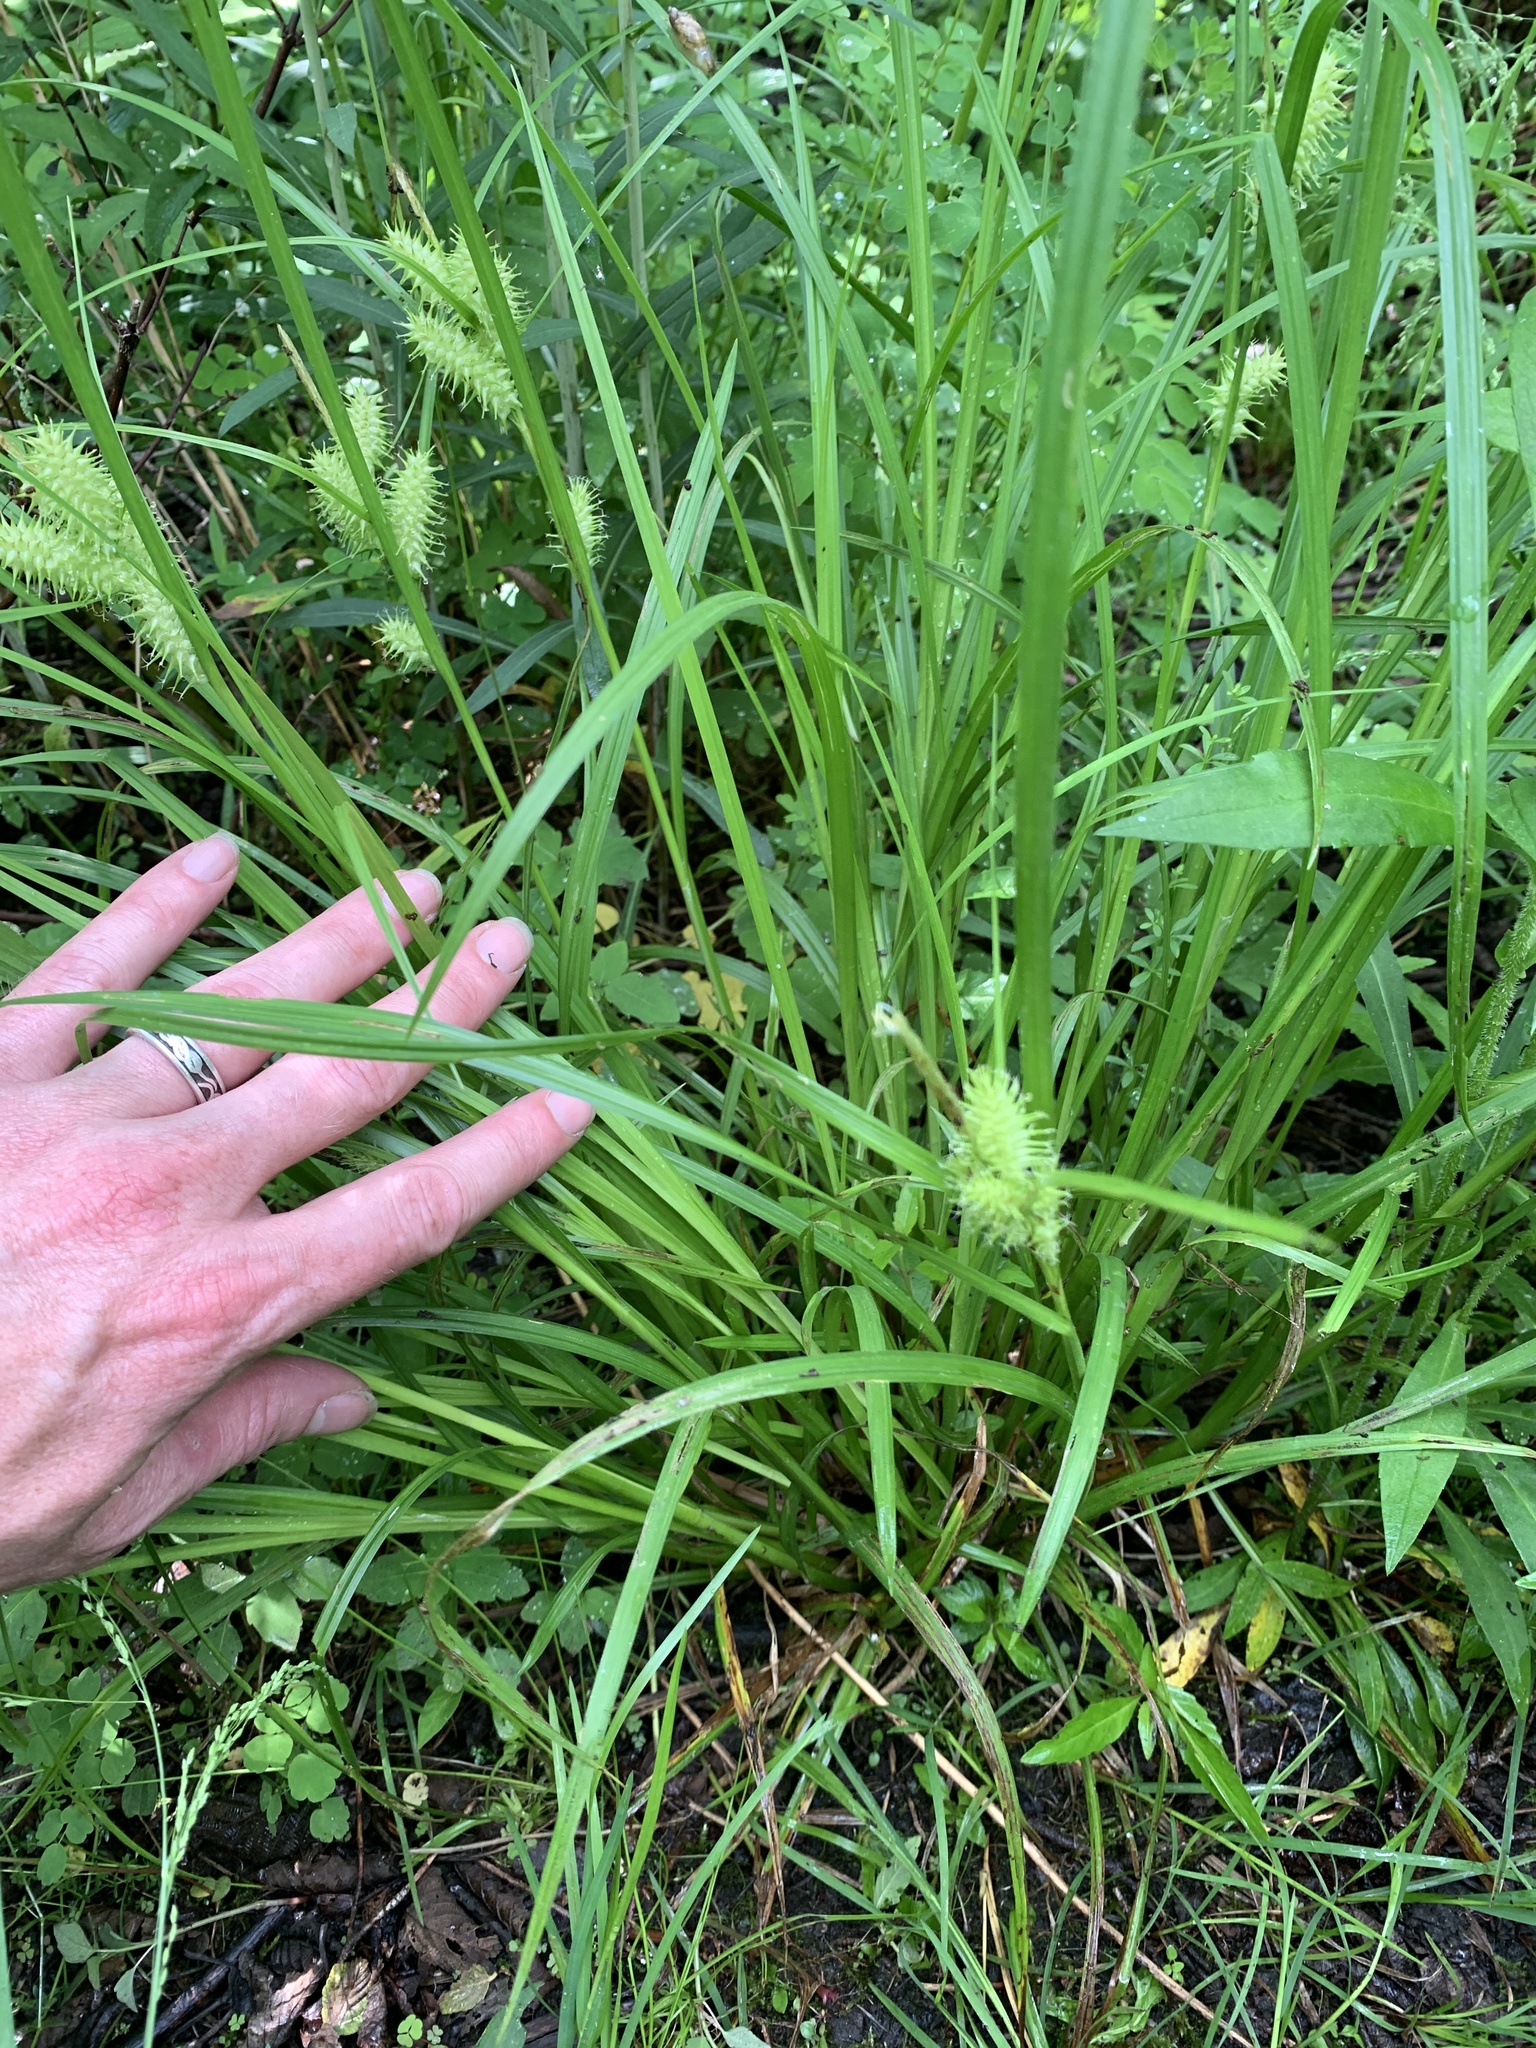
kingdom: Plantae
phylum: Tracheophyta
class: Liliopsida
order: Poales
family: Cyperaceae
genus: Carex
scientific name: Carex retrorsa
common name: Knot-sheath sedge
